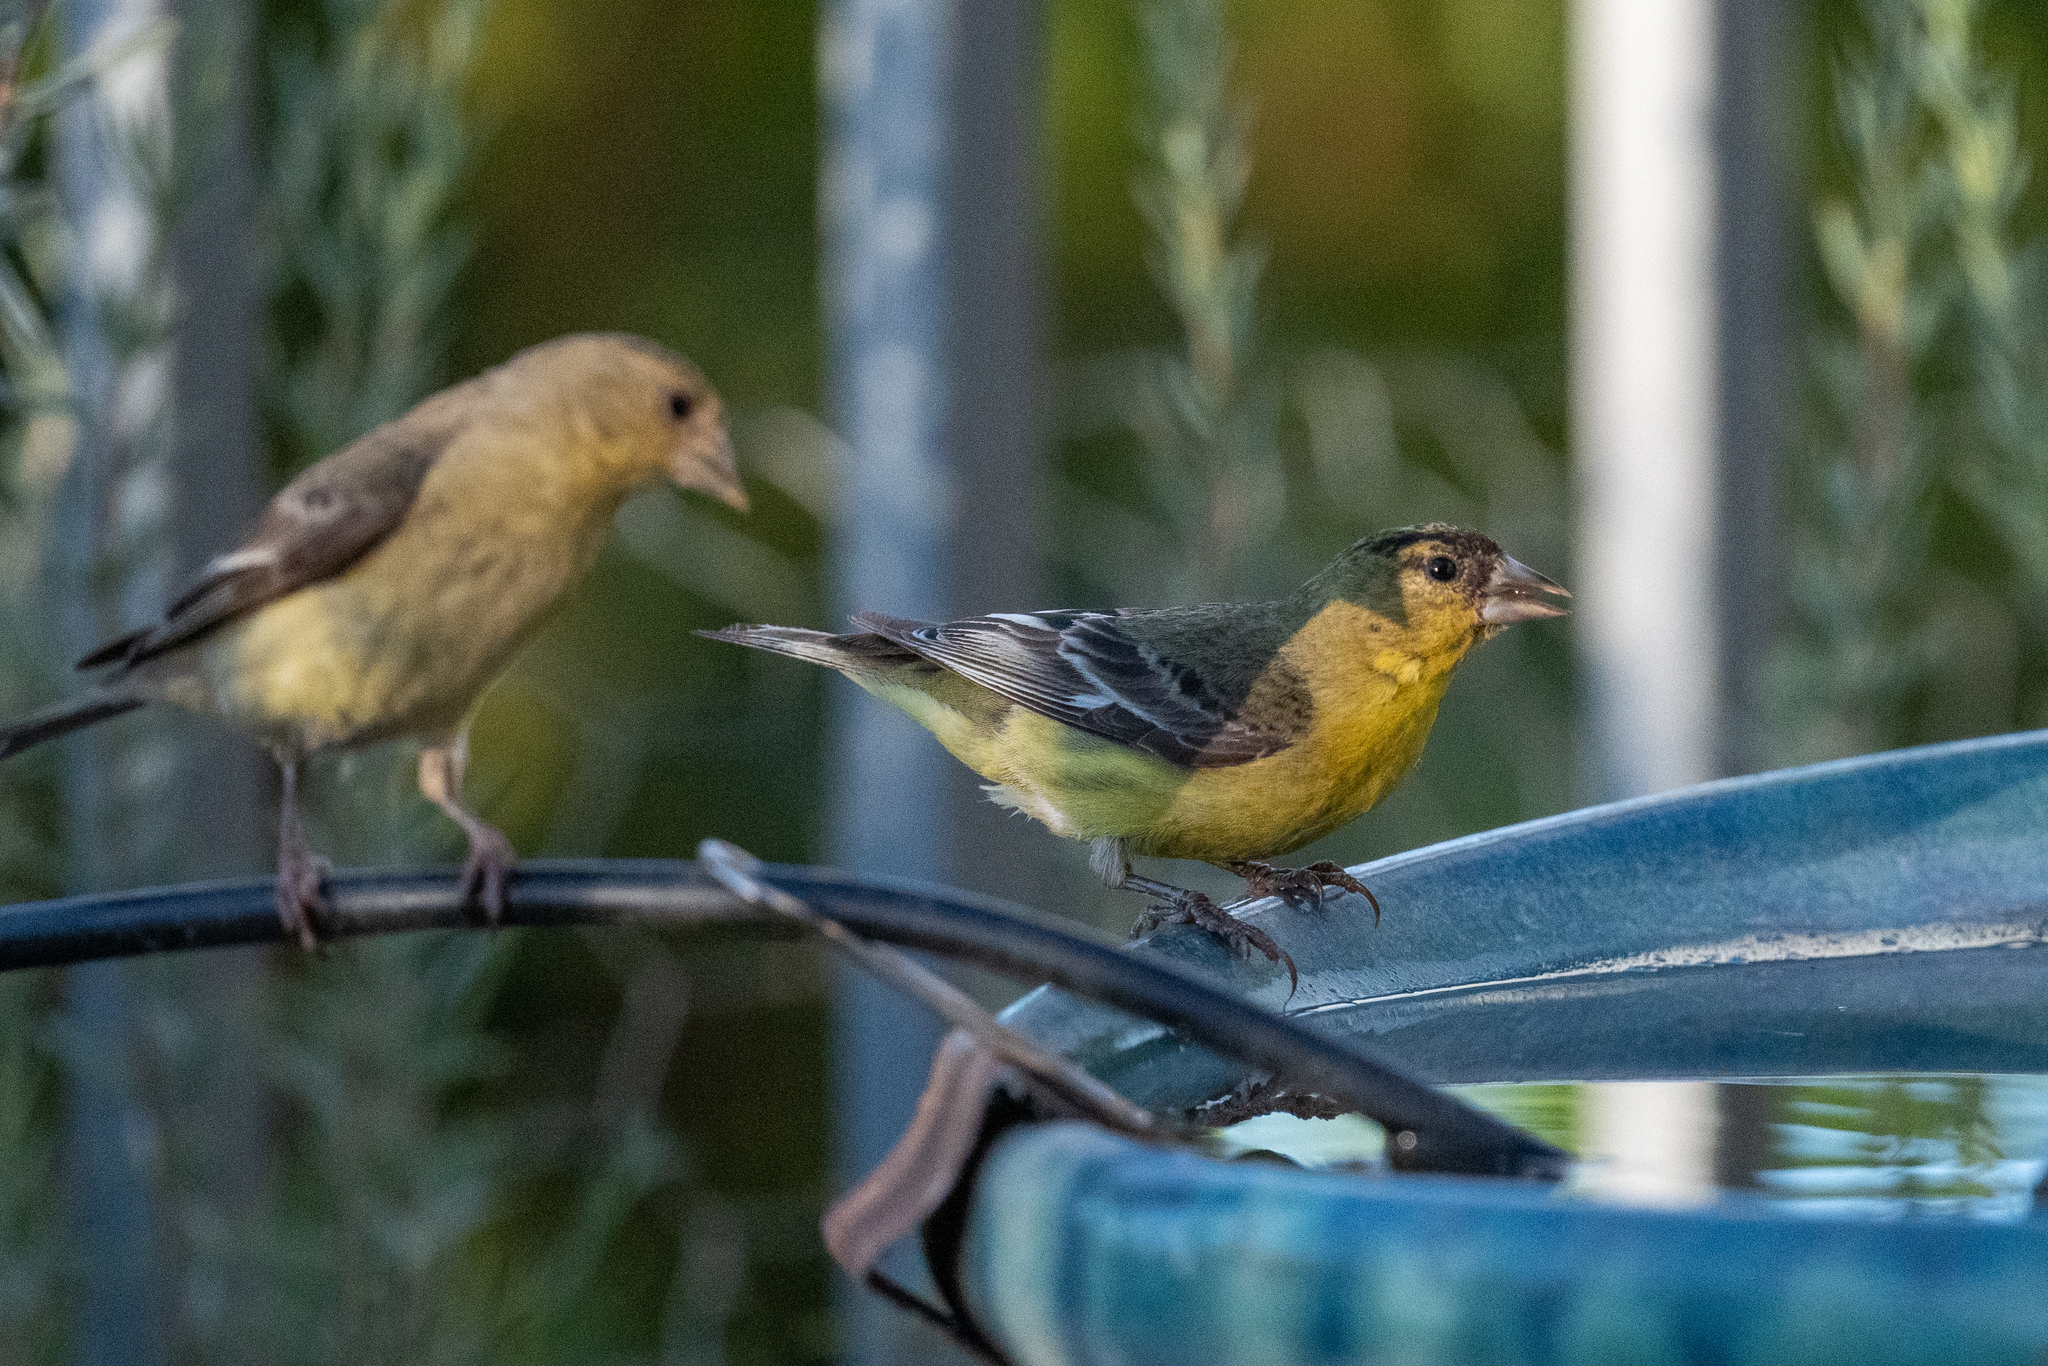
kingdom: Animalia
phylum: Chordata
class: Aves
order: Passeriformes
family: Fringillidae
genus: Spinus
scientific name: Spinus psaltria
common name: Lesser goldfinch
